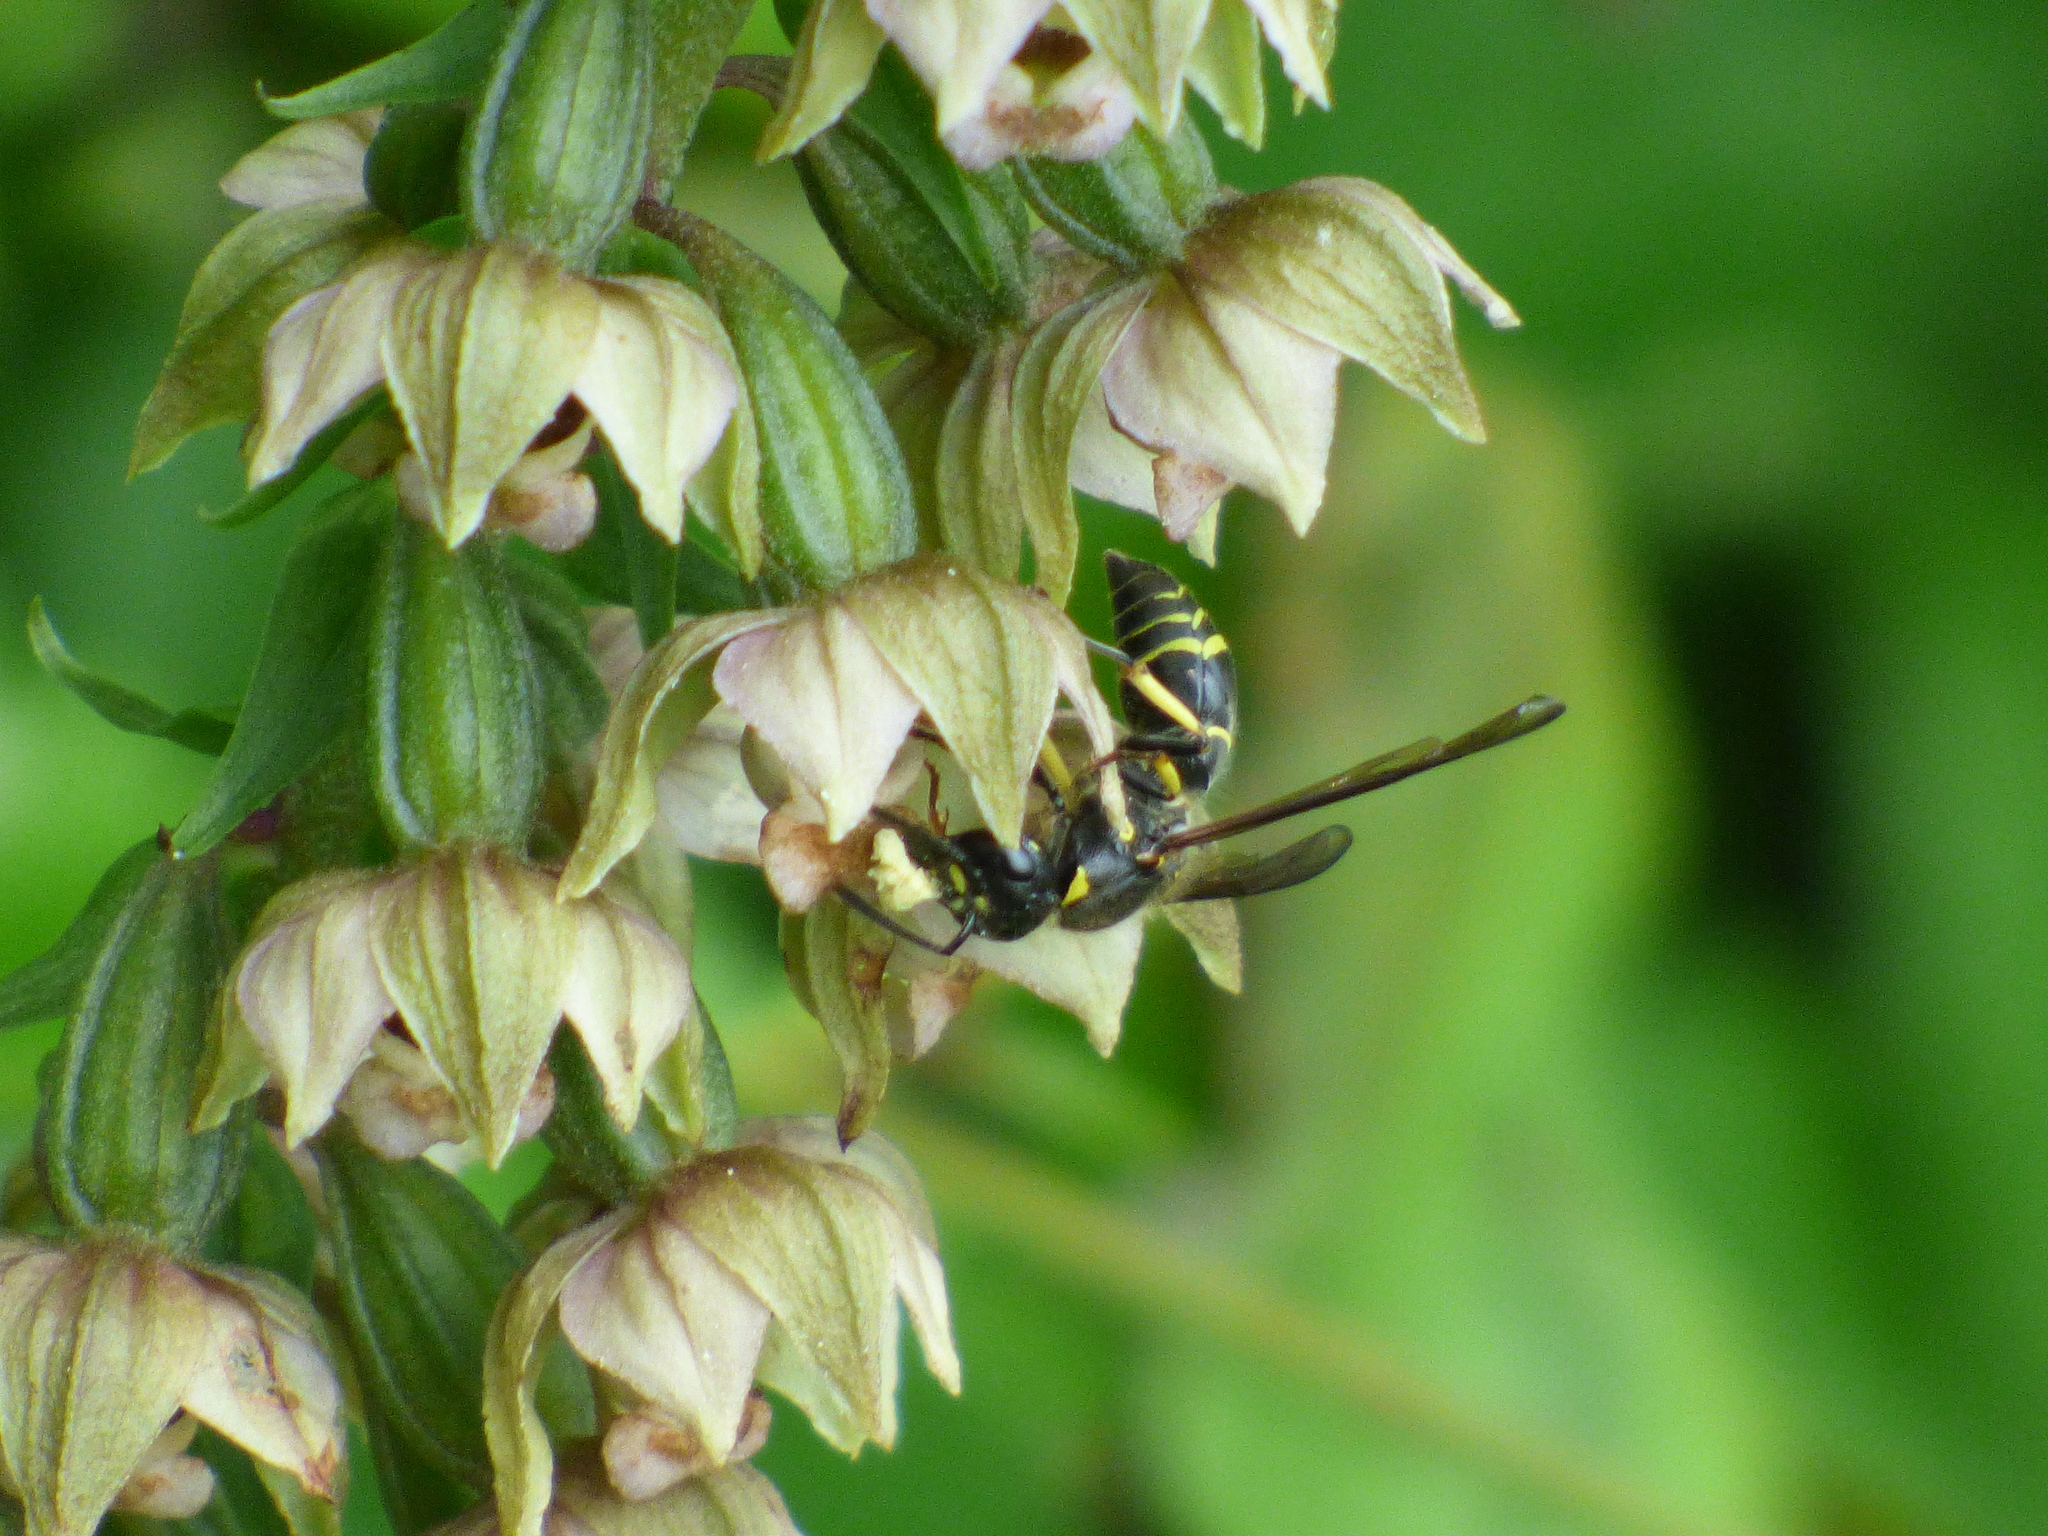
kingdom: Animalia
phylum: Arthropoda
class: Insecta
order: Hymenoptera
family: Eumenidae
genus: Polistes
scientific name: Polistes fuscatus
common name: Dark paper wasp
